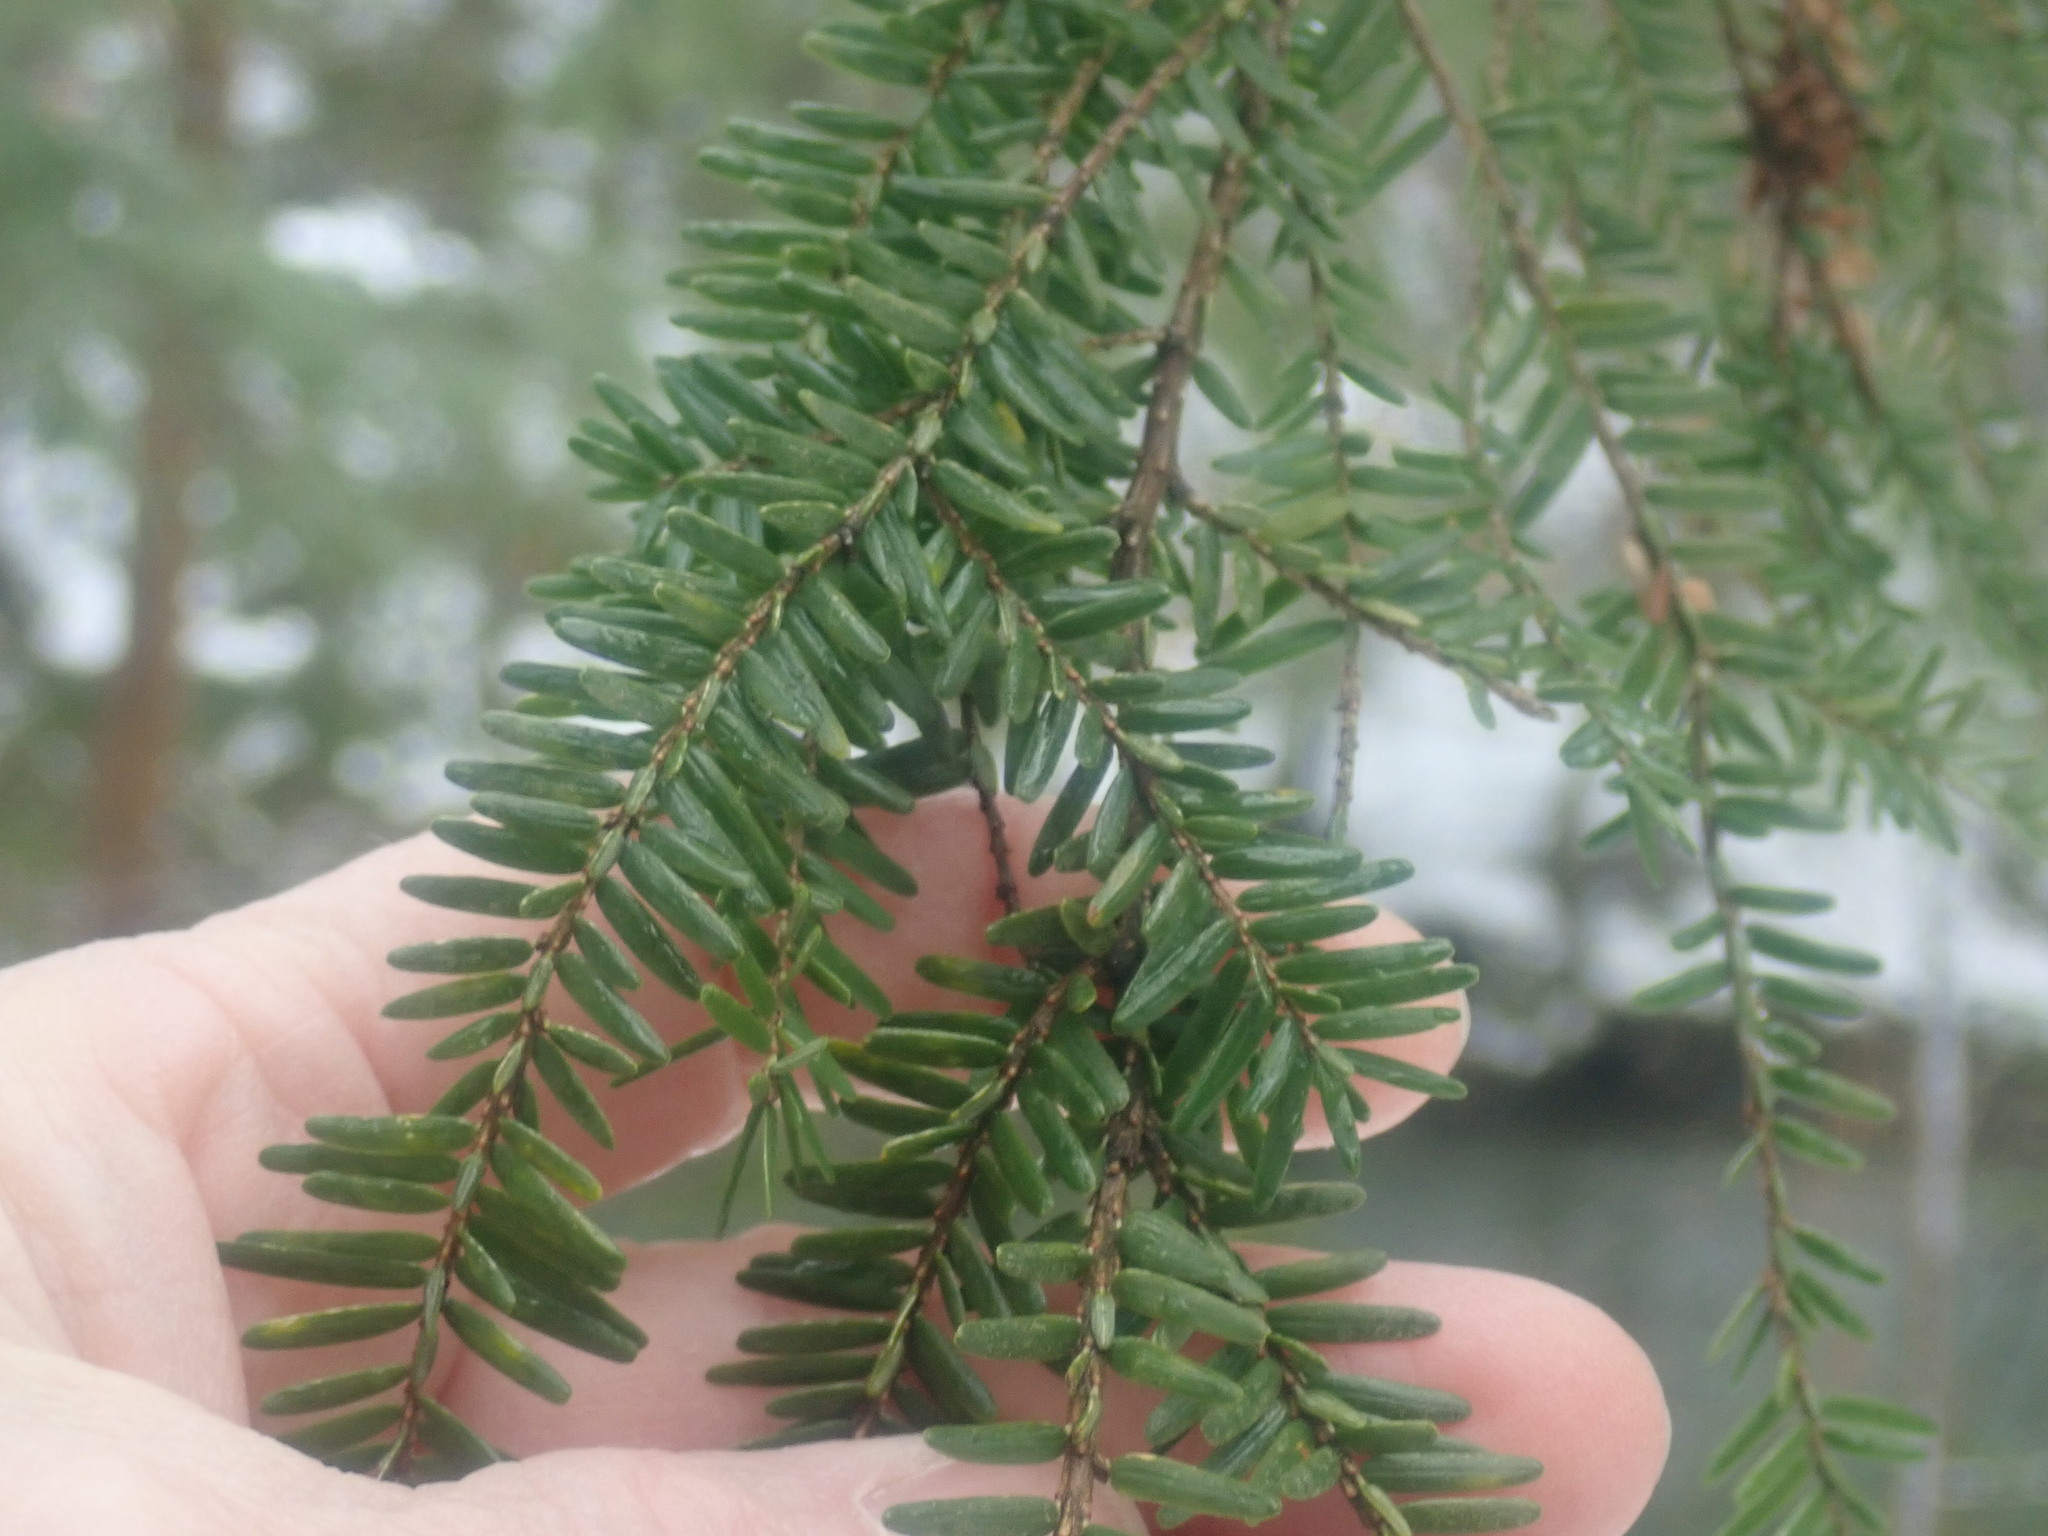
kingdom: Plantae
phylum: Tracheophyta
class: Pinopsida
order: Pinales
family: Pinaceae
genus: Tsuga
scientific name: Tsuga canadensis
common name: Eastern hemlock
